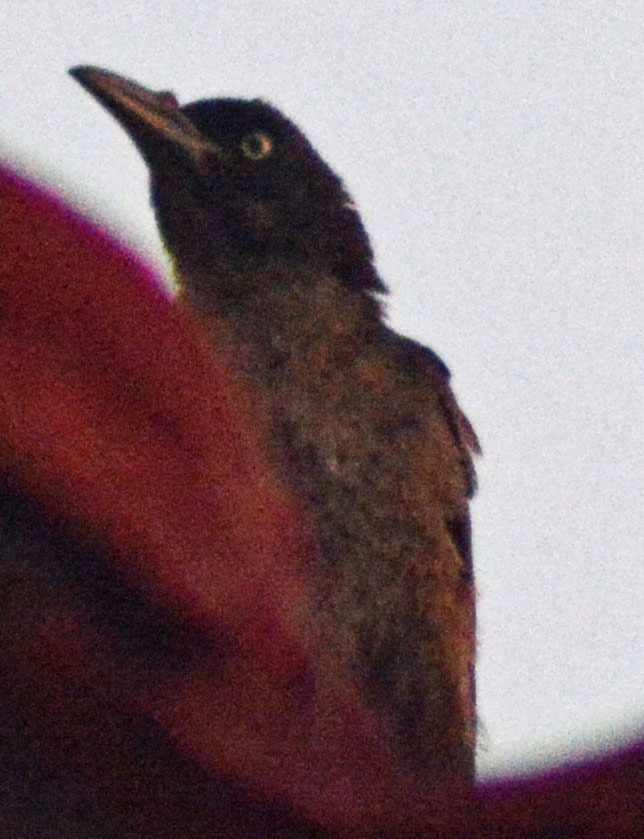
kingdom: Animalia
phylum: Chordata
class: Aves
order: Passeriformes
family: Icteridae
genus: Quiscalus
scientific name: Quiscalus mexicanus
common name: Great-tailed grackle
